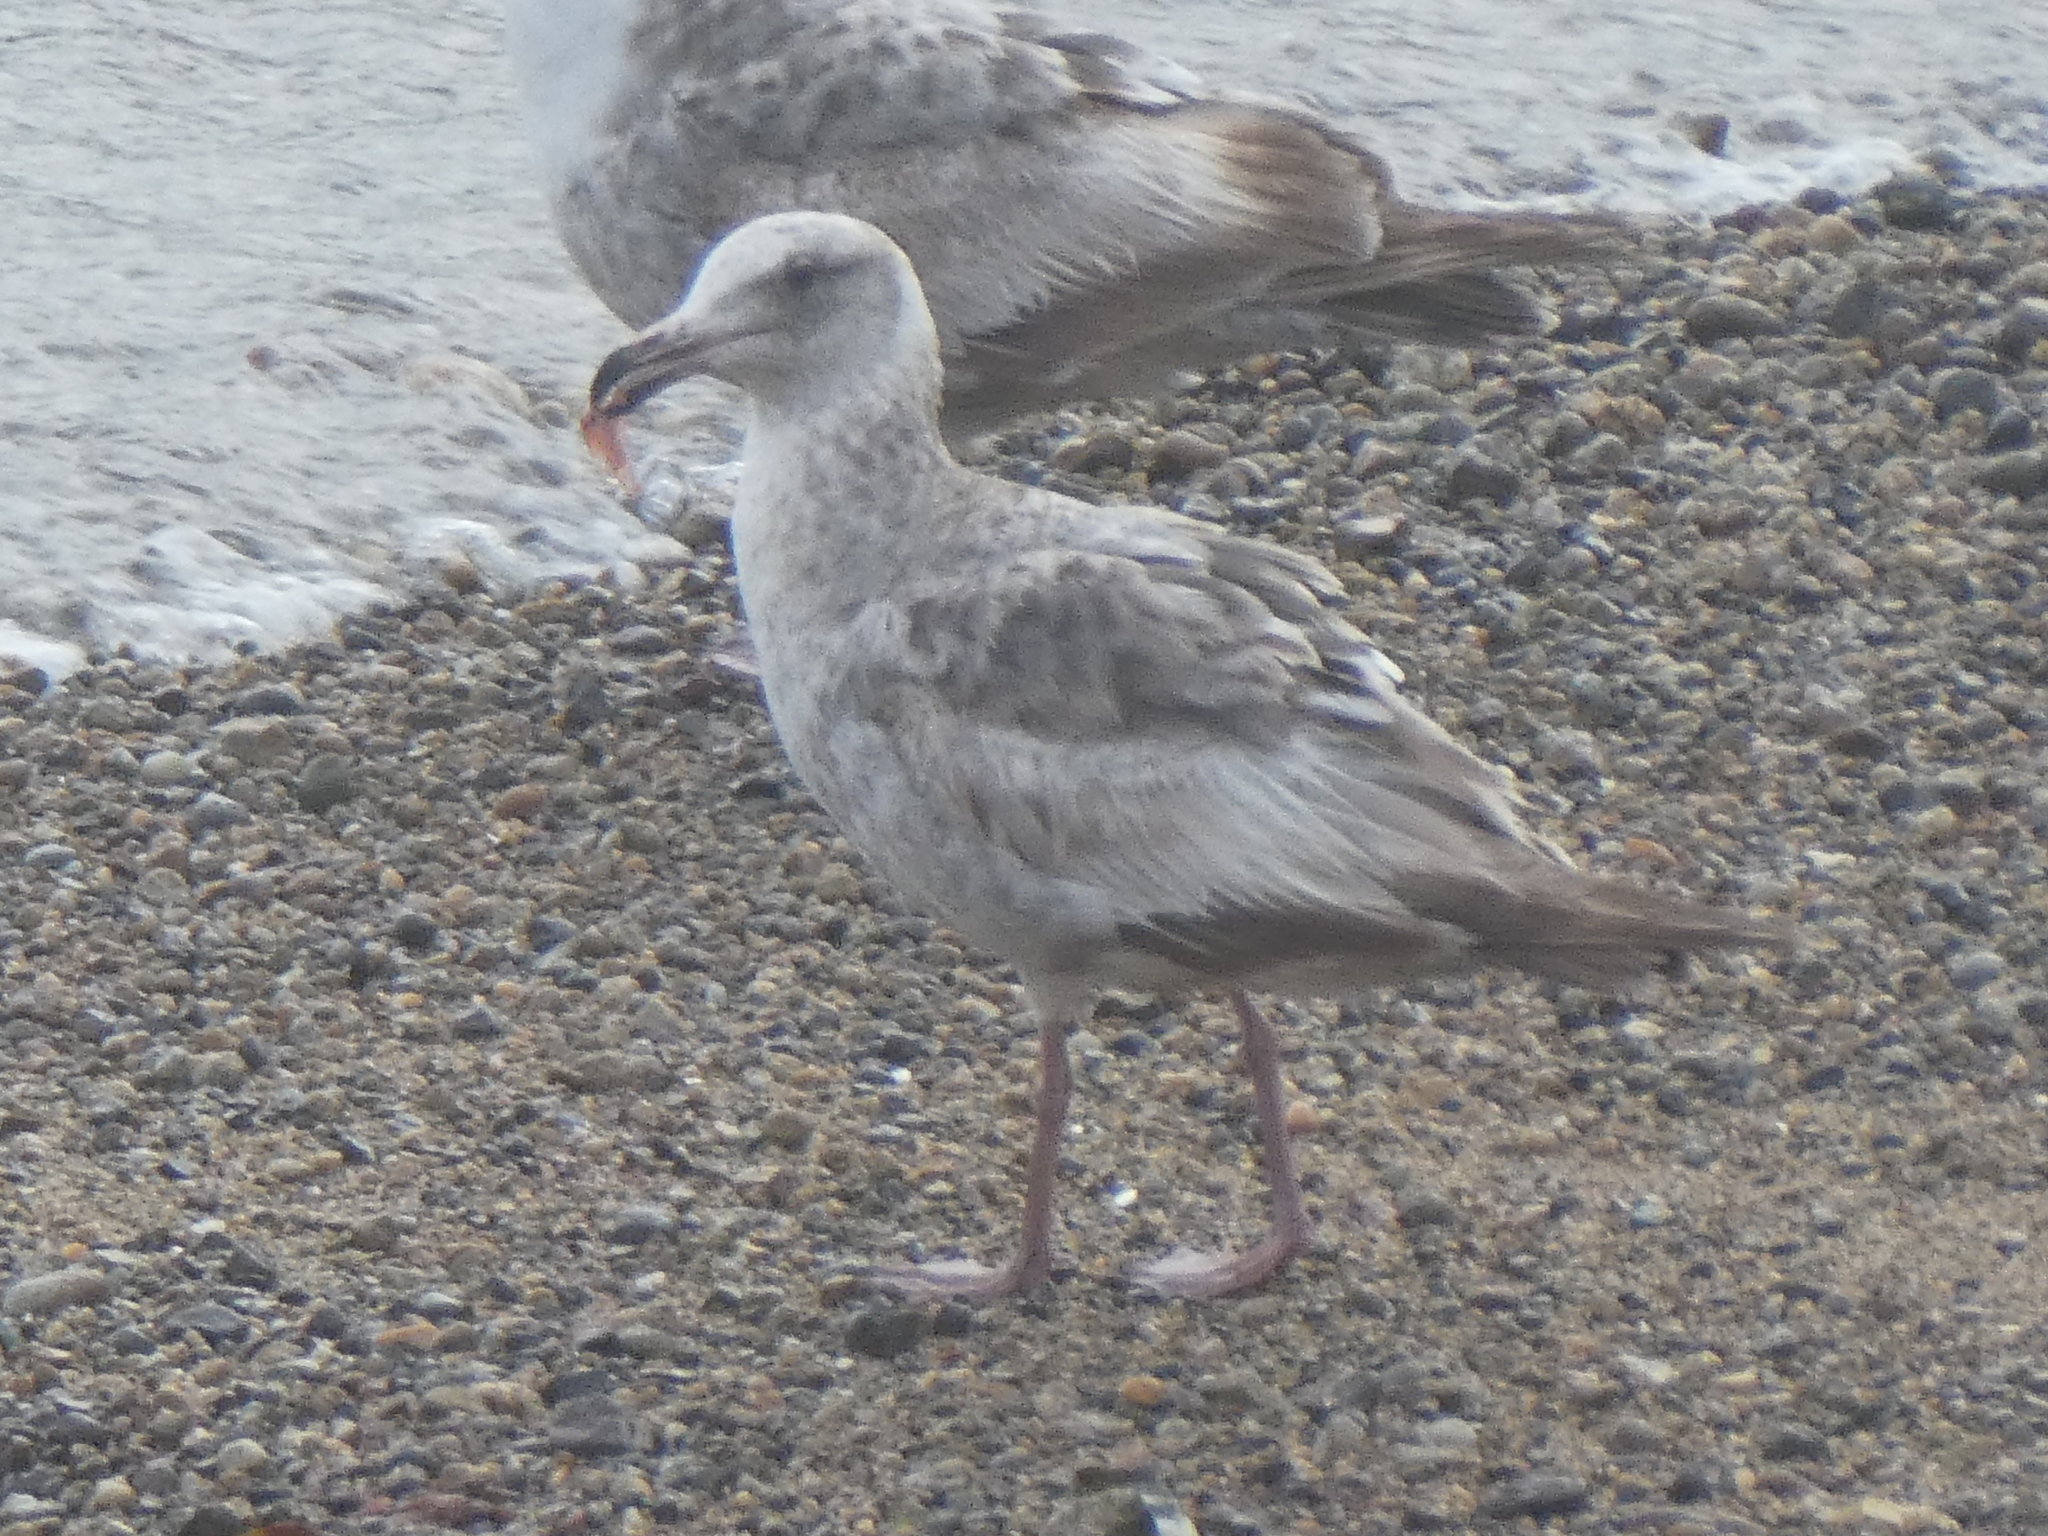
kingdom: Animalia
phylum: Chordata
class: Aves
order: Charadriiformes
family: Laridae
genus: Larus
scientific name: Larus occidentalis
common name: Western gull
